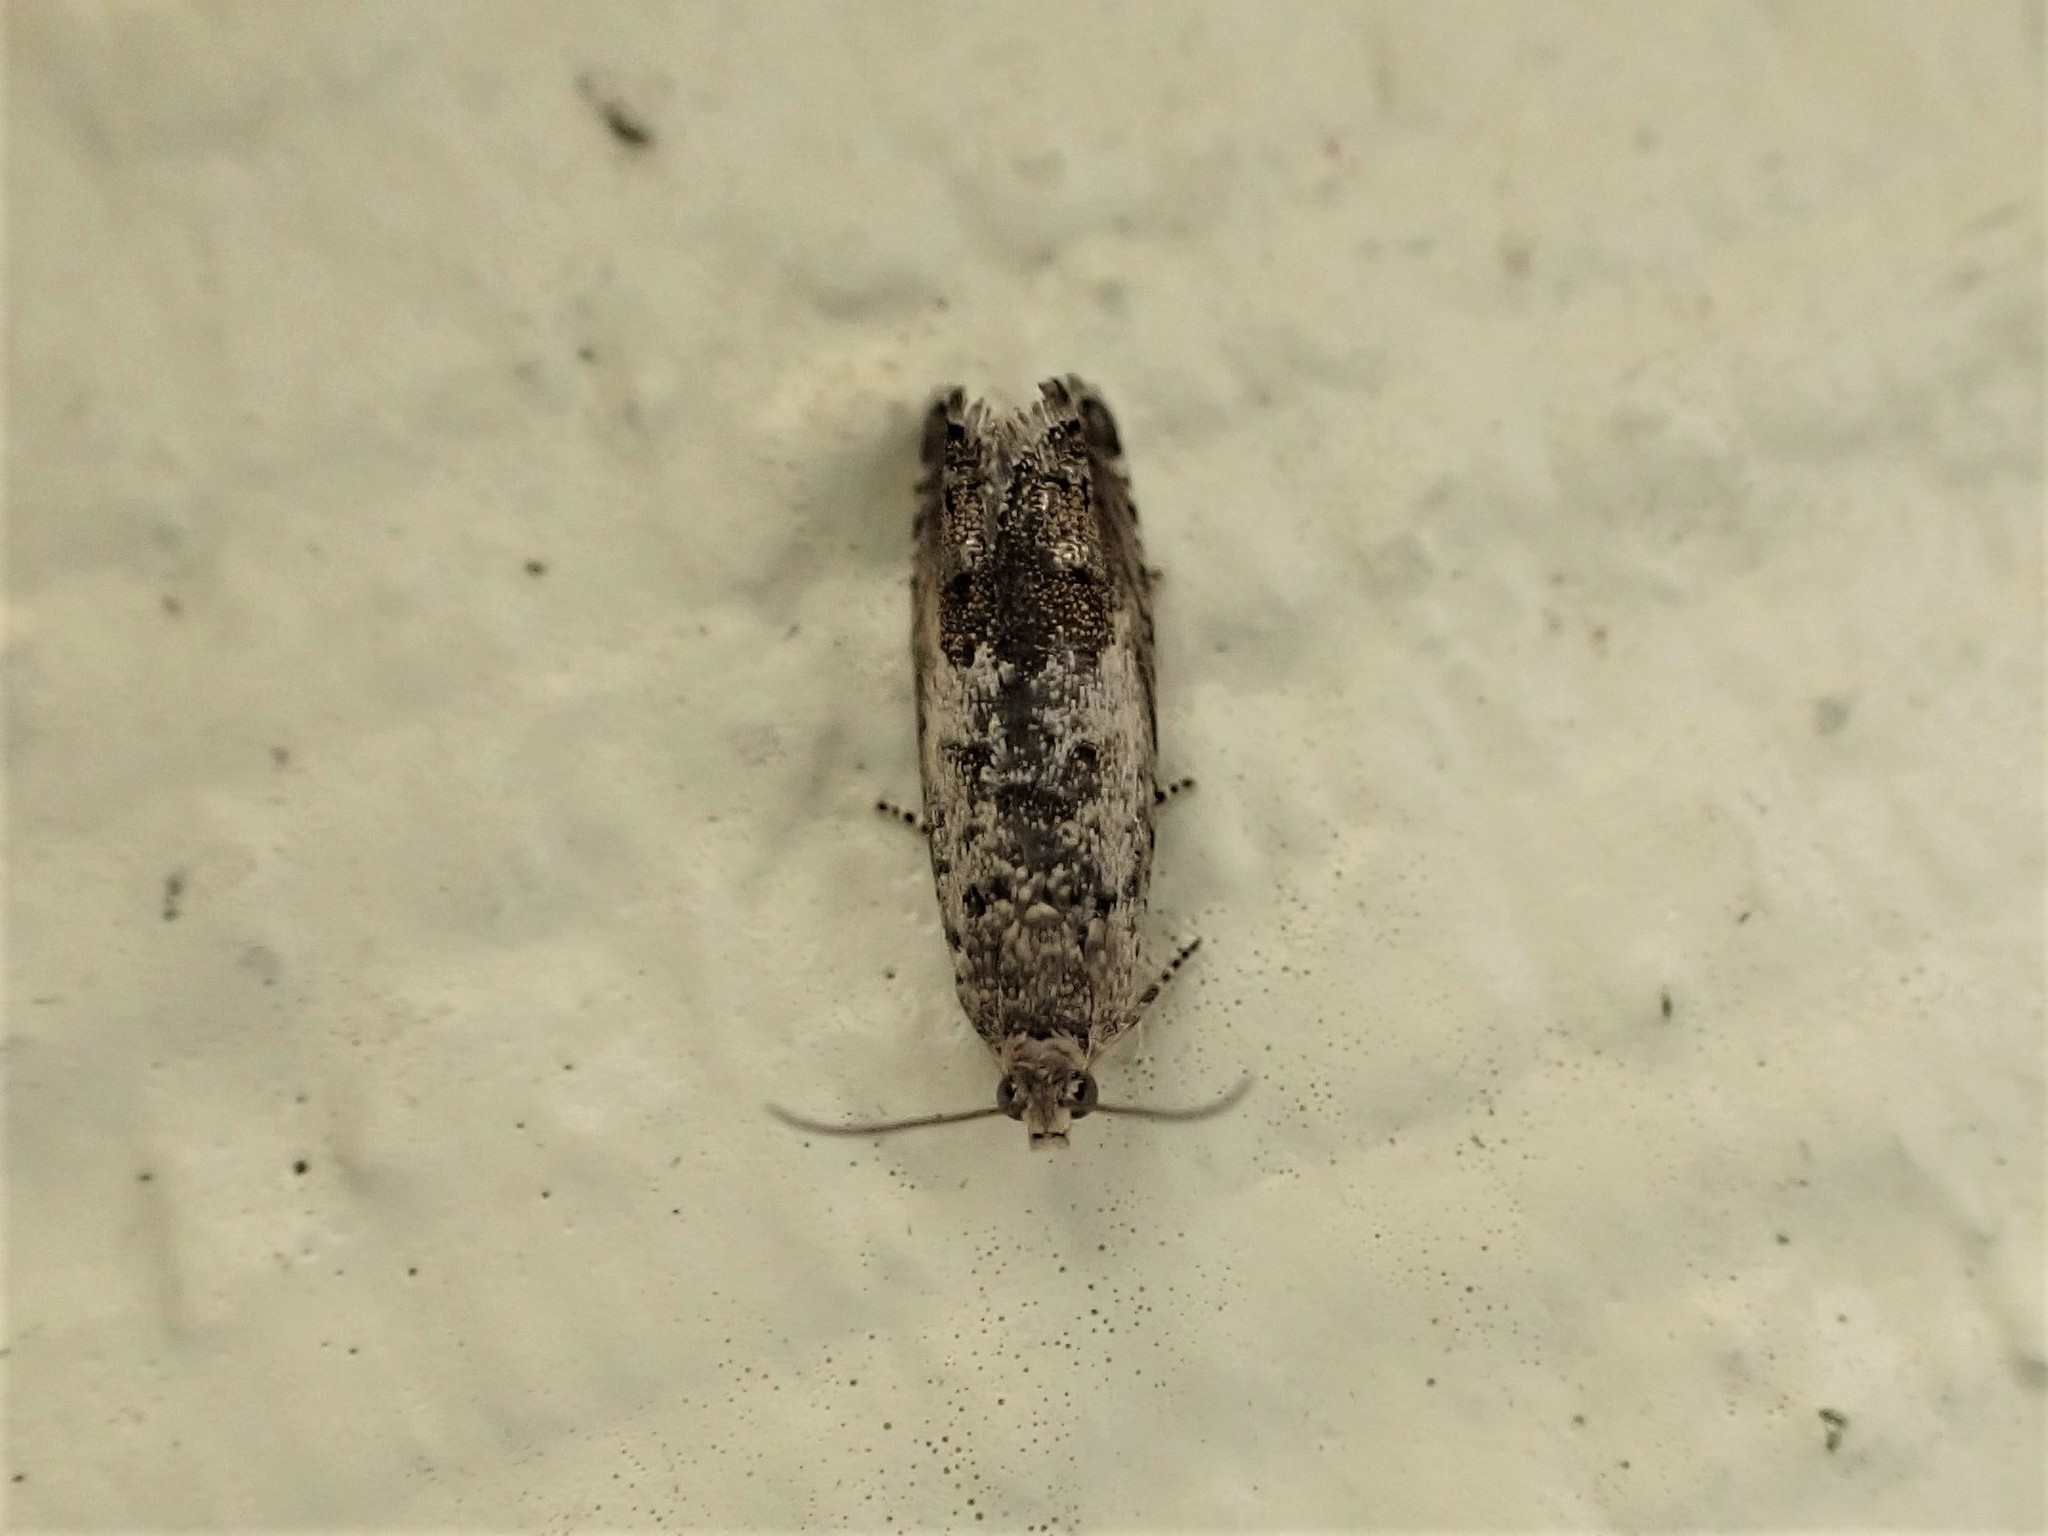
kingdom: Animalia
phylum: Arthropoda
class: Insecta
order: Lepidoptera
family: Tortricidae
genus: Cydia
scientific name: Cydia succedana
